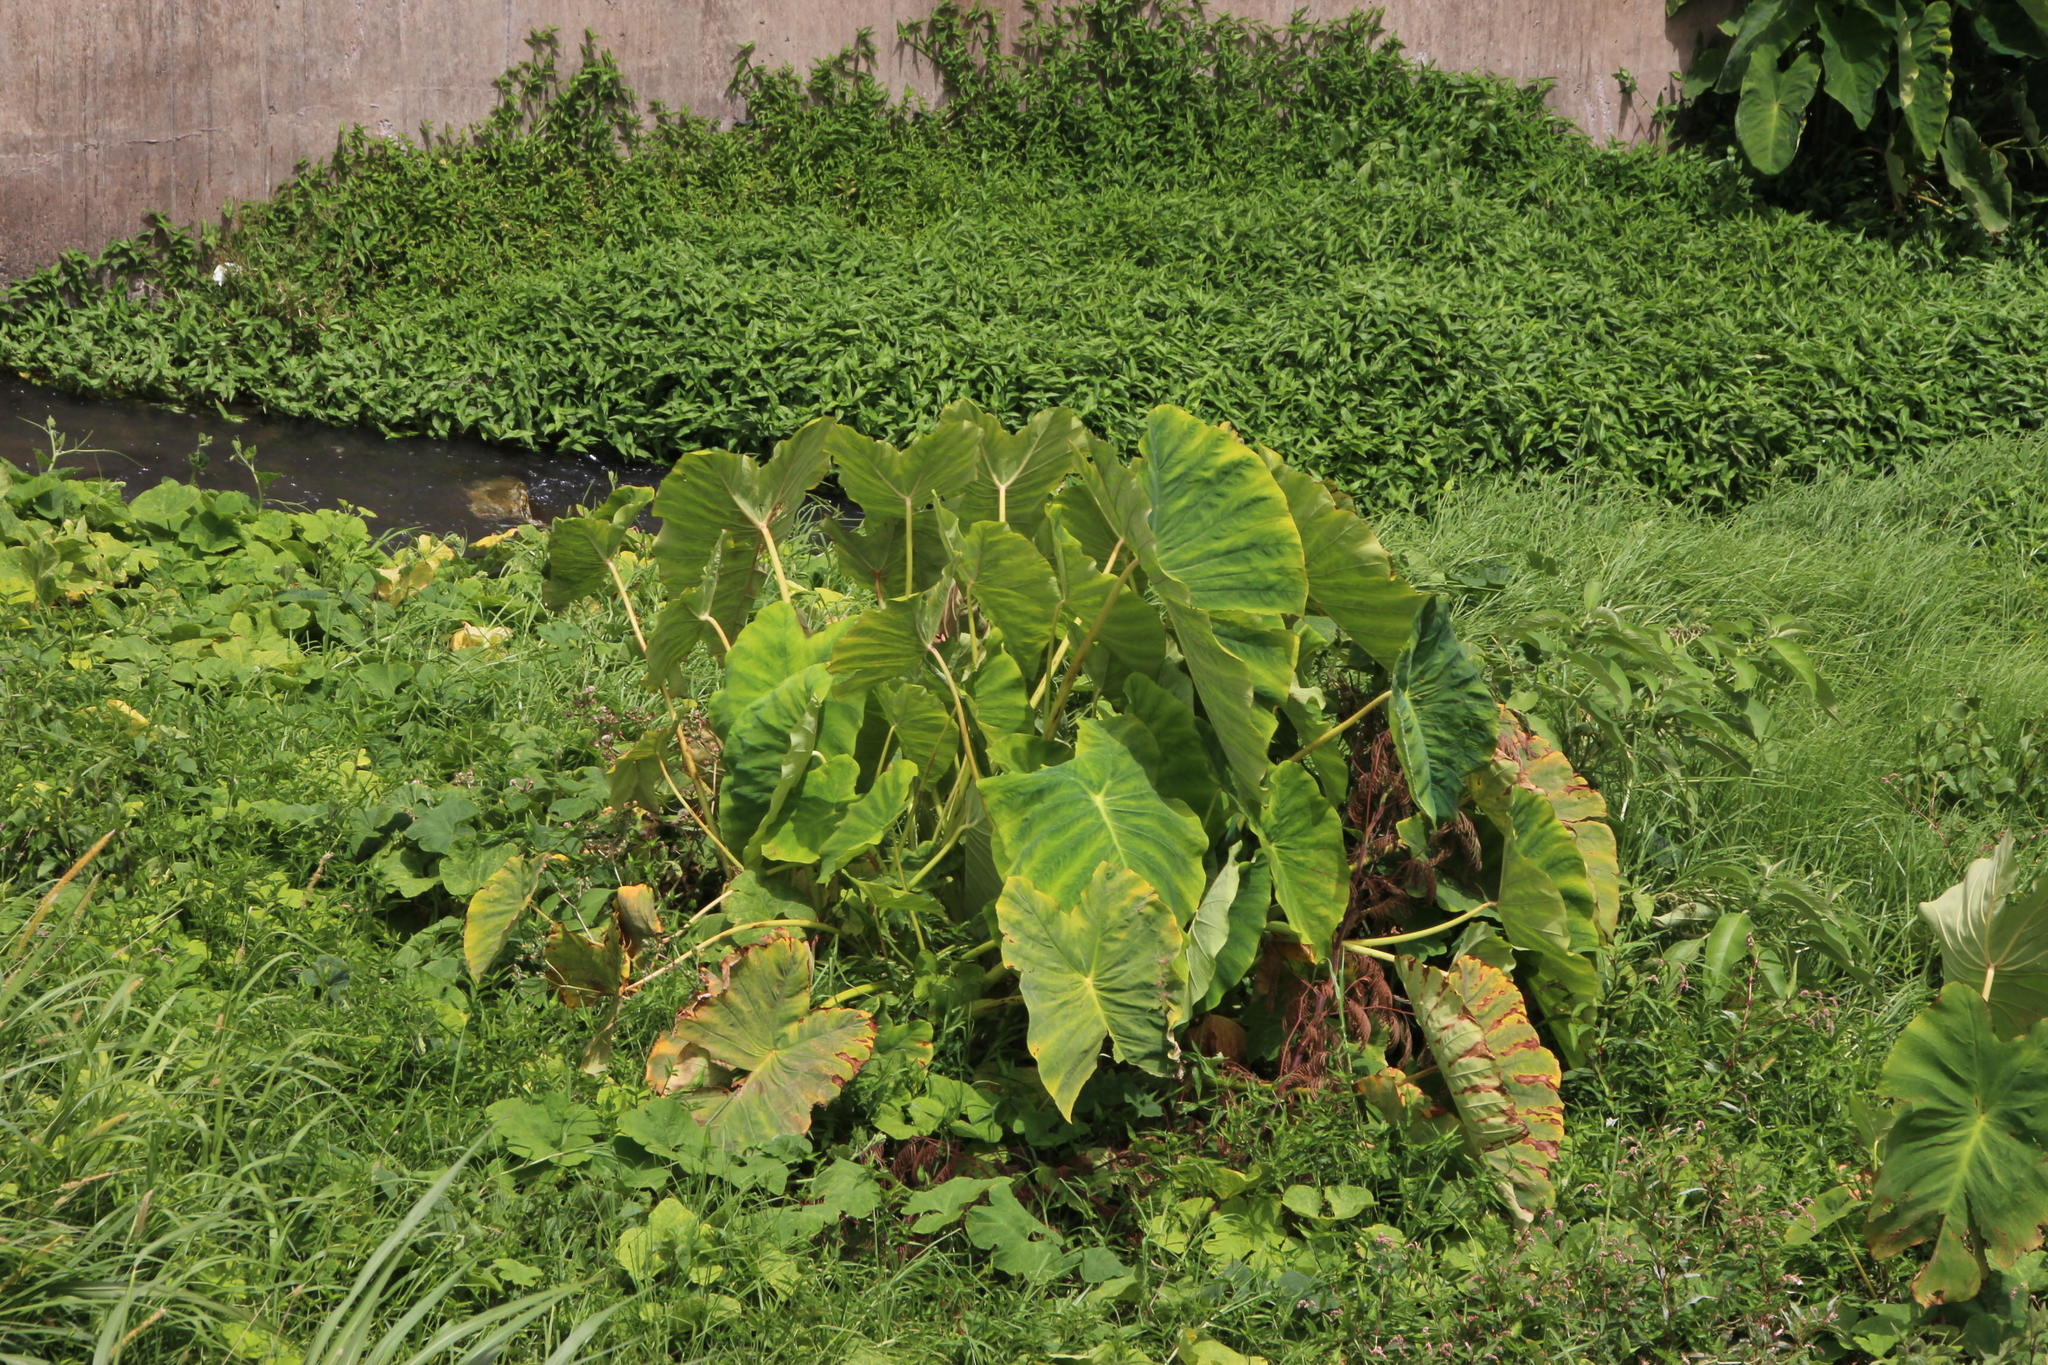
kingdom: Plantae
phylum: Tracheophyta
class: Liliopsida
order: Alismatales
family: Araceae
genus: Colocasia
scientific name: Colocasia esculenta
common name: Taro
